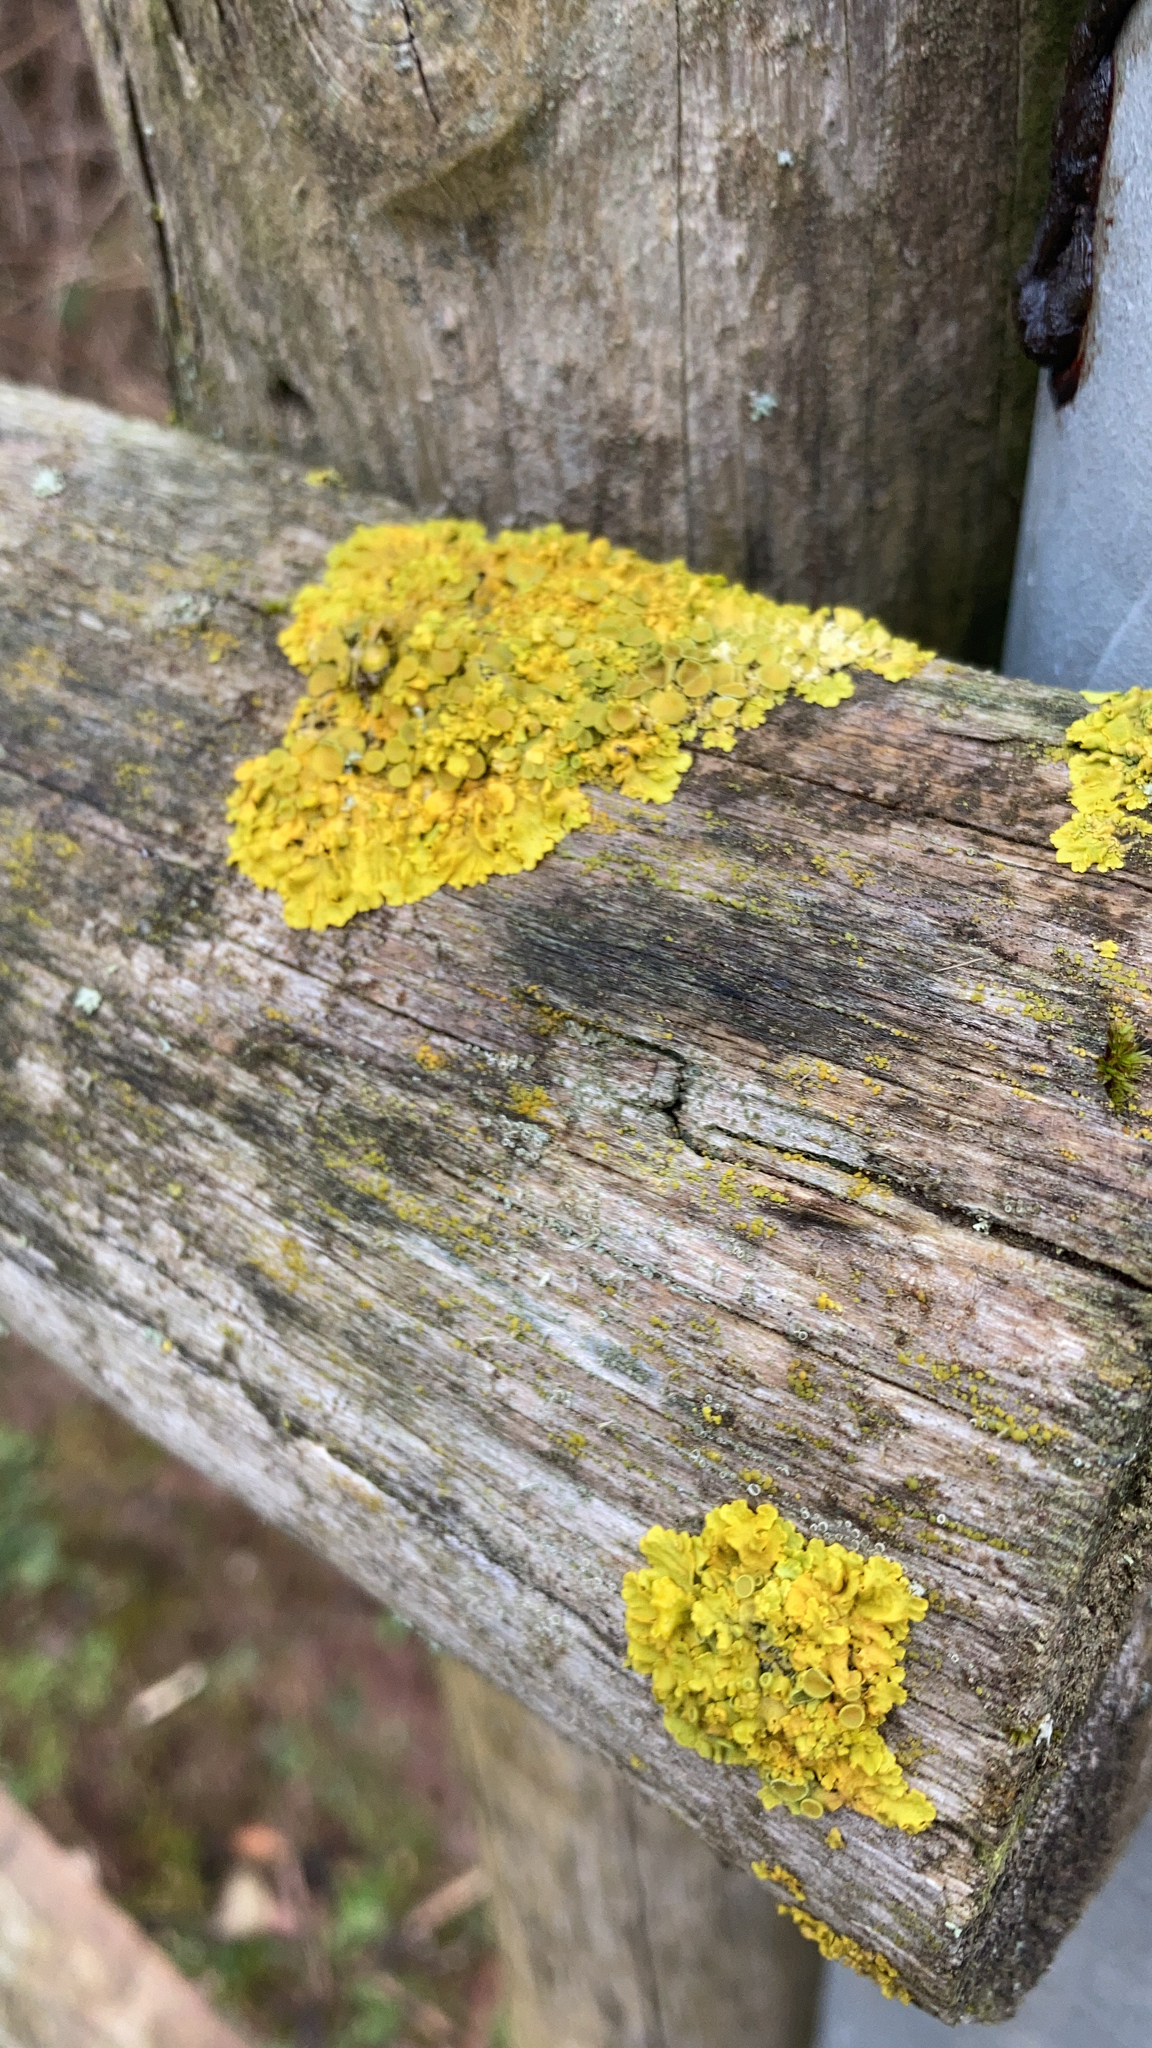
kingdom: Fungi
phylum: Ascomycota
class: Lecanoromycetes
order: Teloschistales
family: Teloschistaceae
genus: Xanthoria
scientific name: Xanthoria parietina
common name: Common orange lichen
